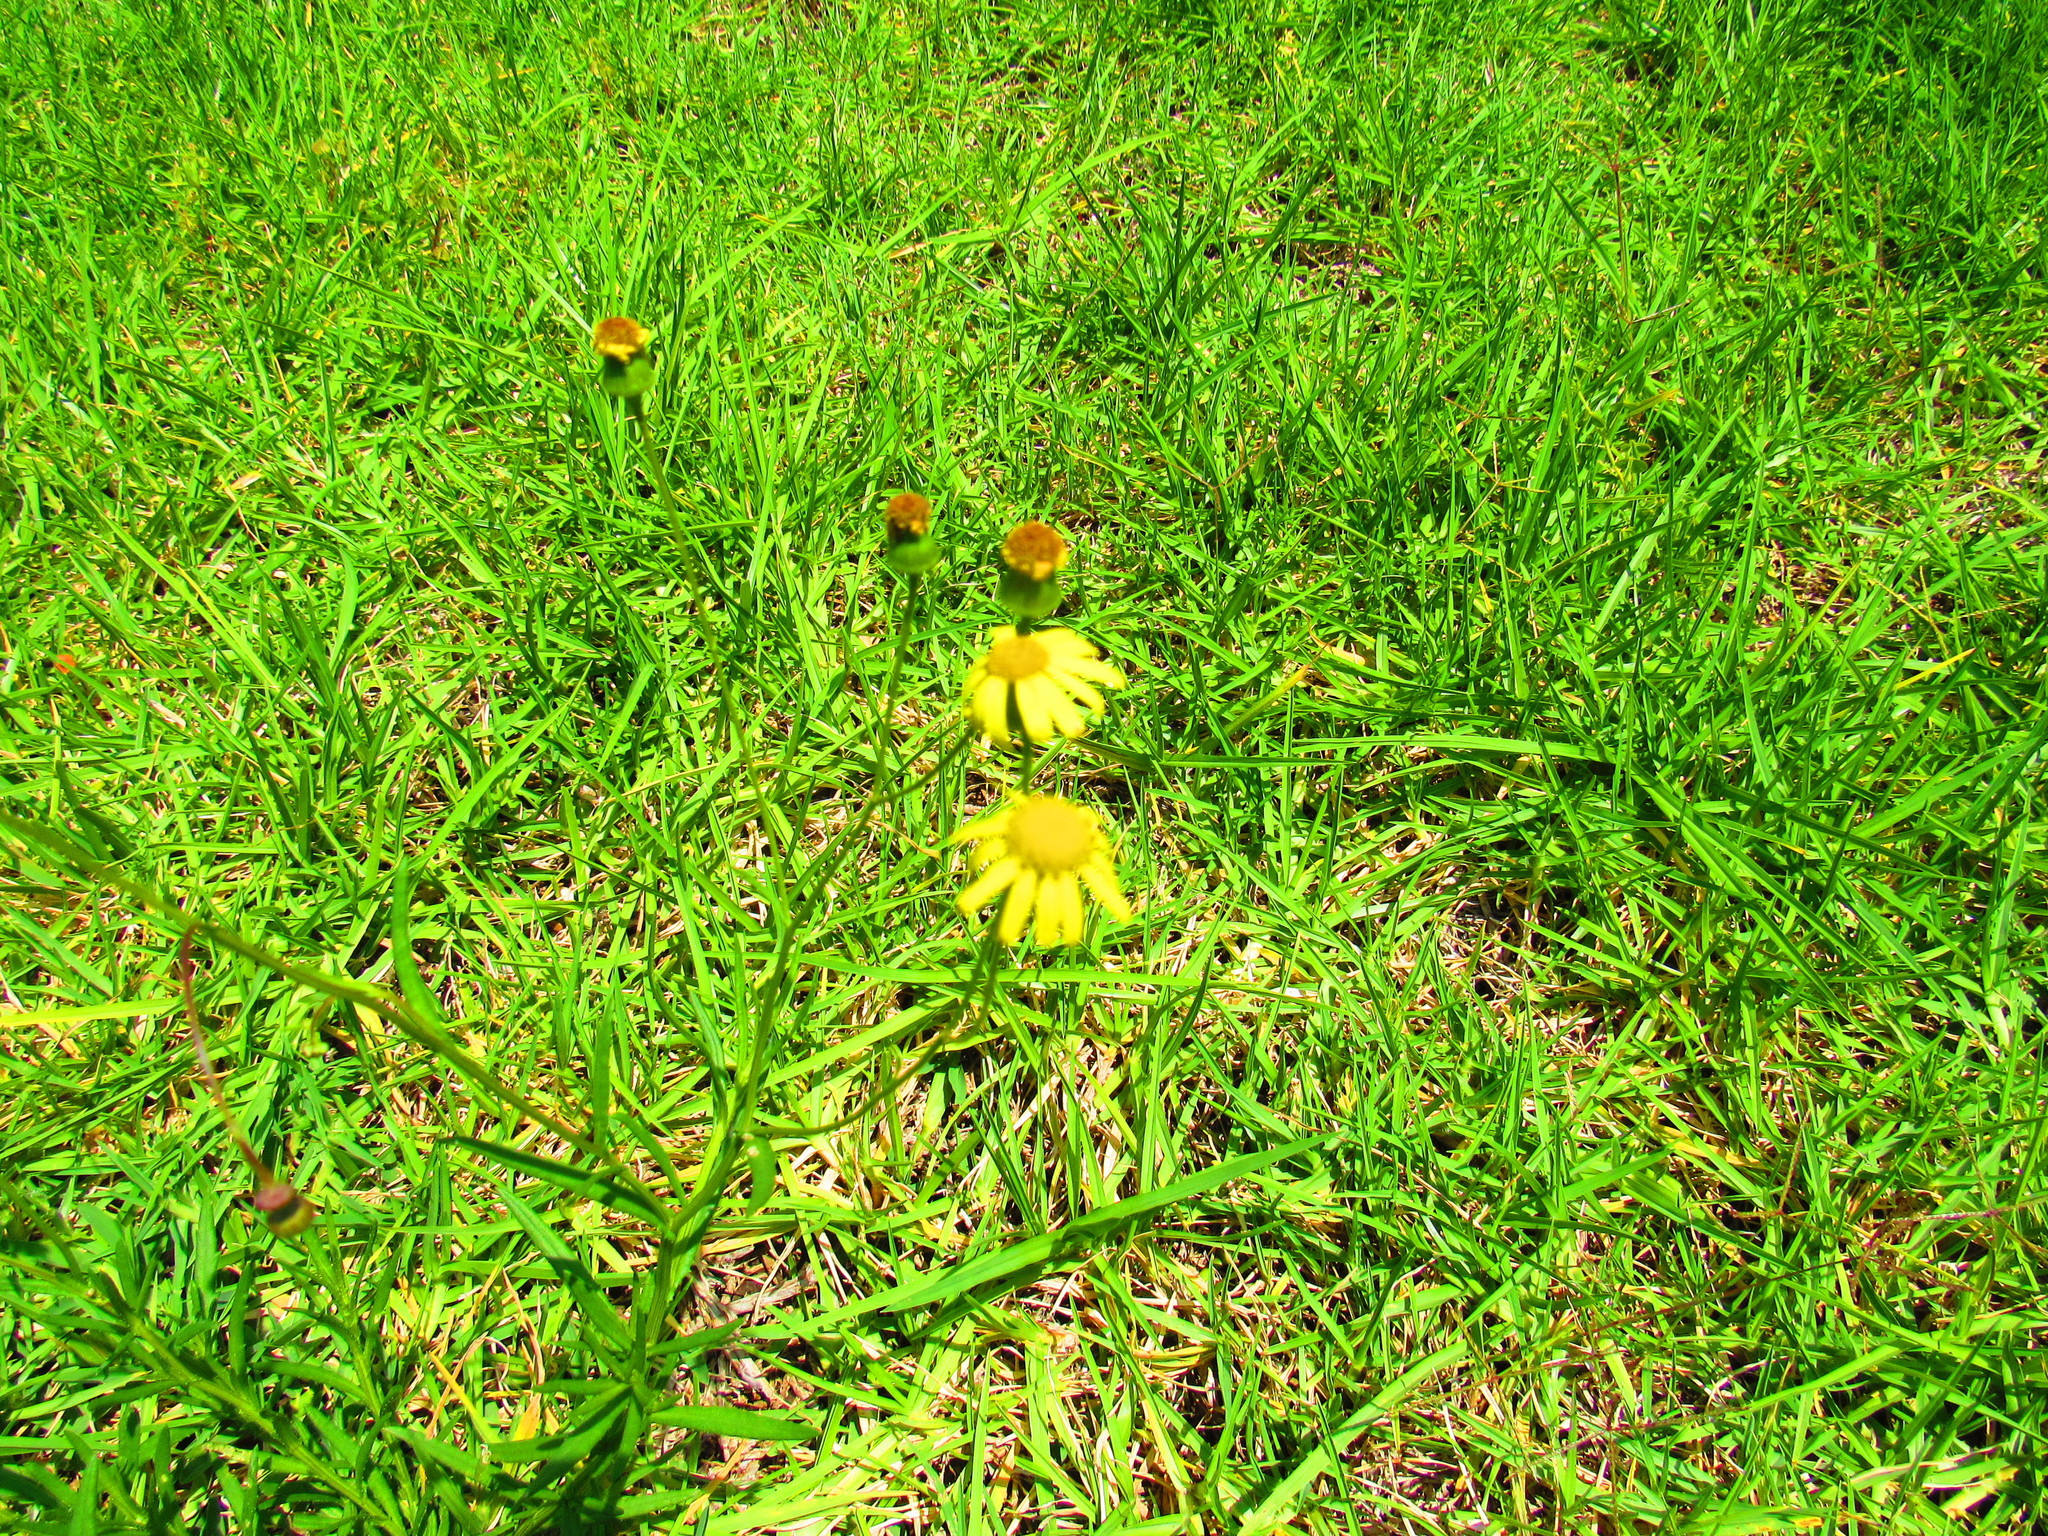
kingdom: Plantae
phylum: Tracheophyta
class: Magnoliopsida
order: Asterales
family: Asteraceae
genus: Senecio
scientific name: Senecio inaequidens
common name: Narrow-leaved ragwort
